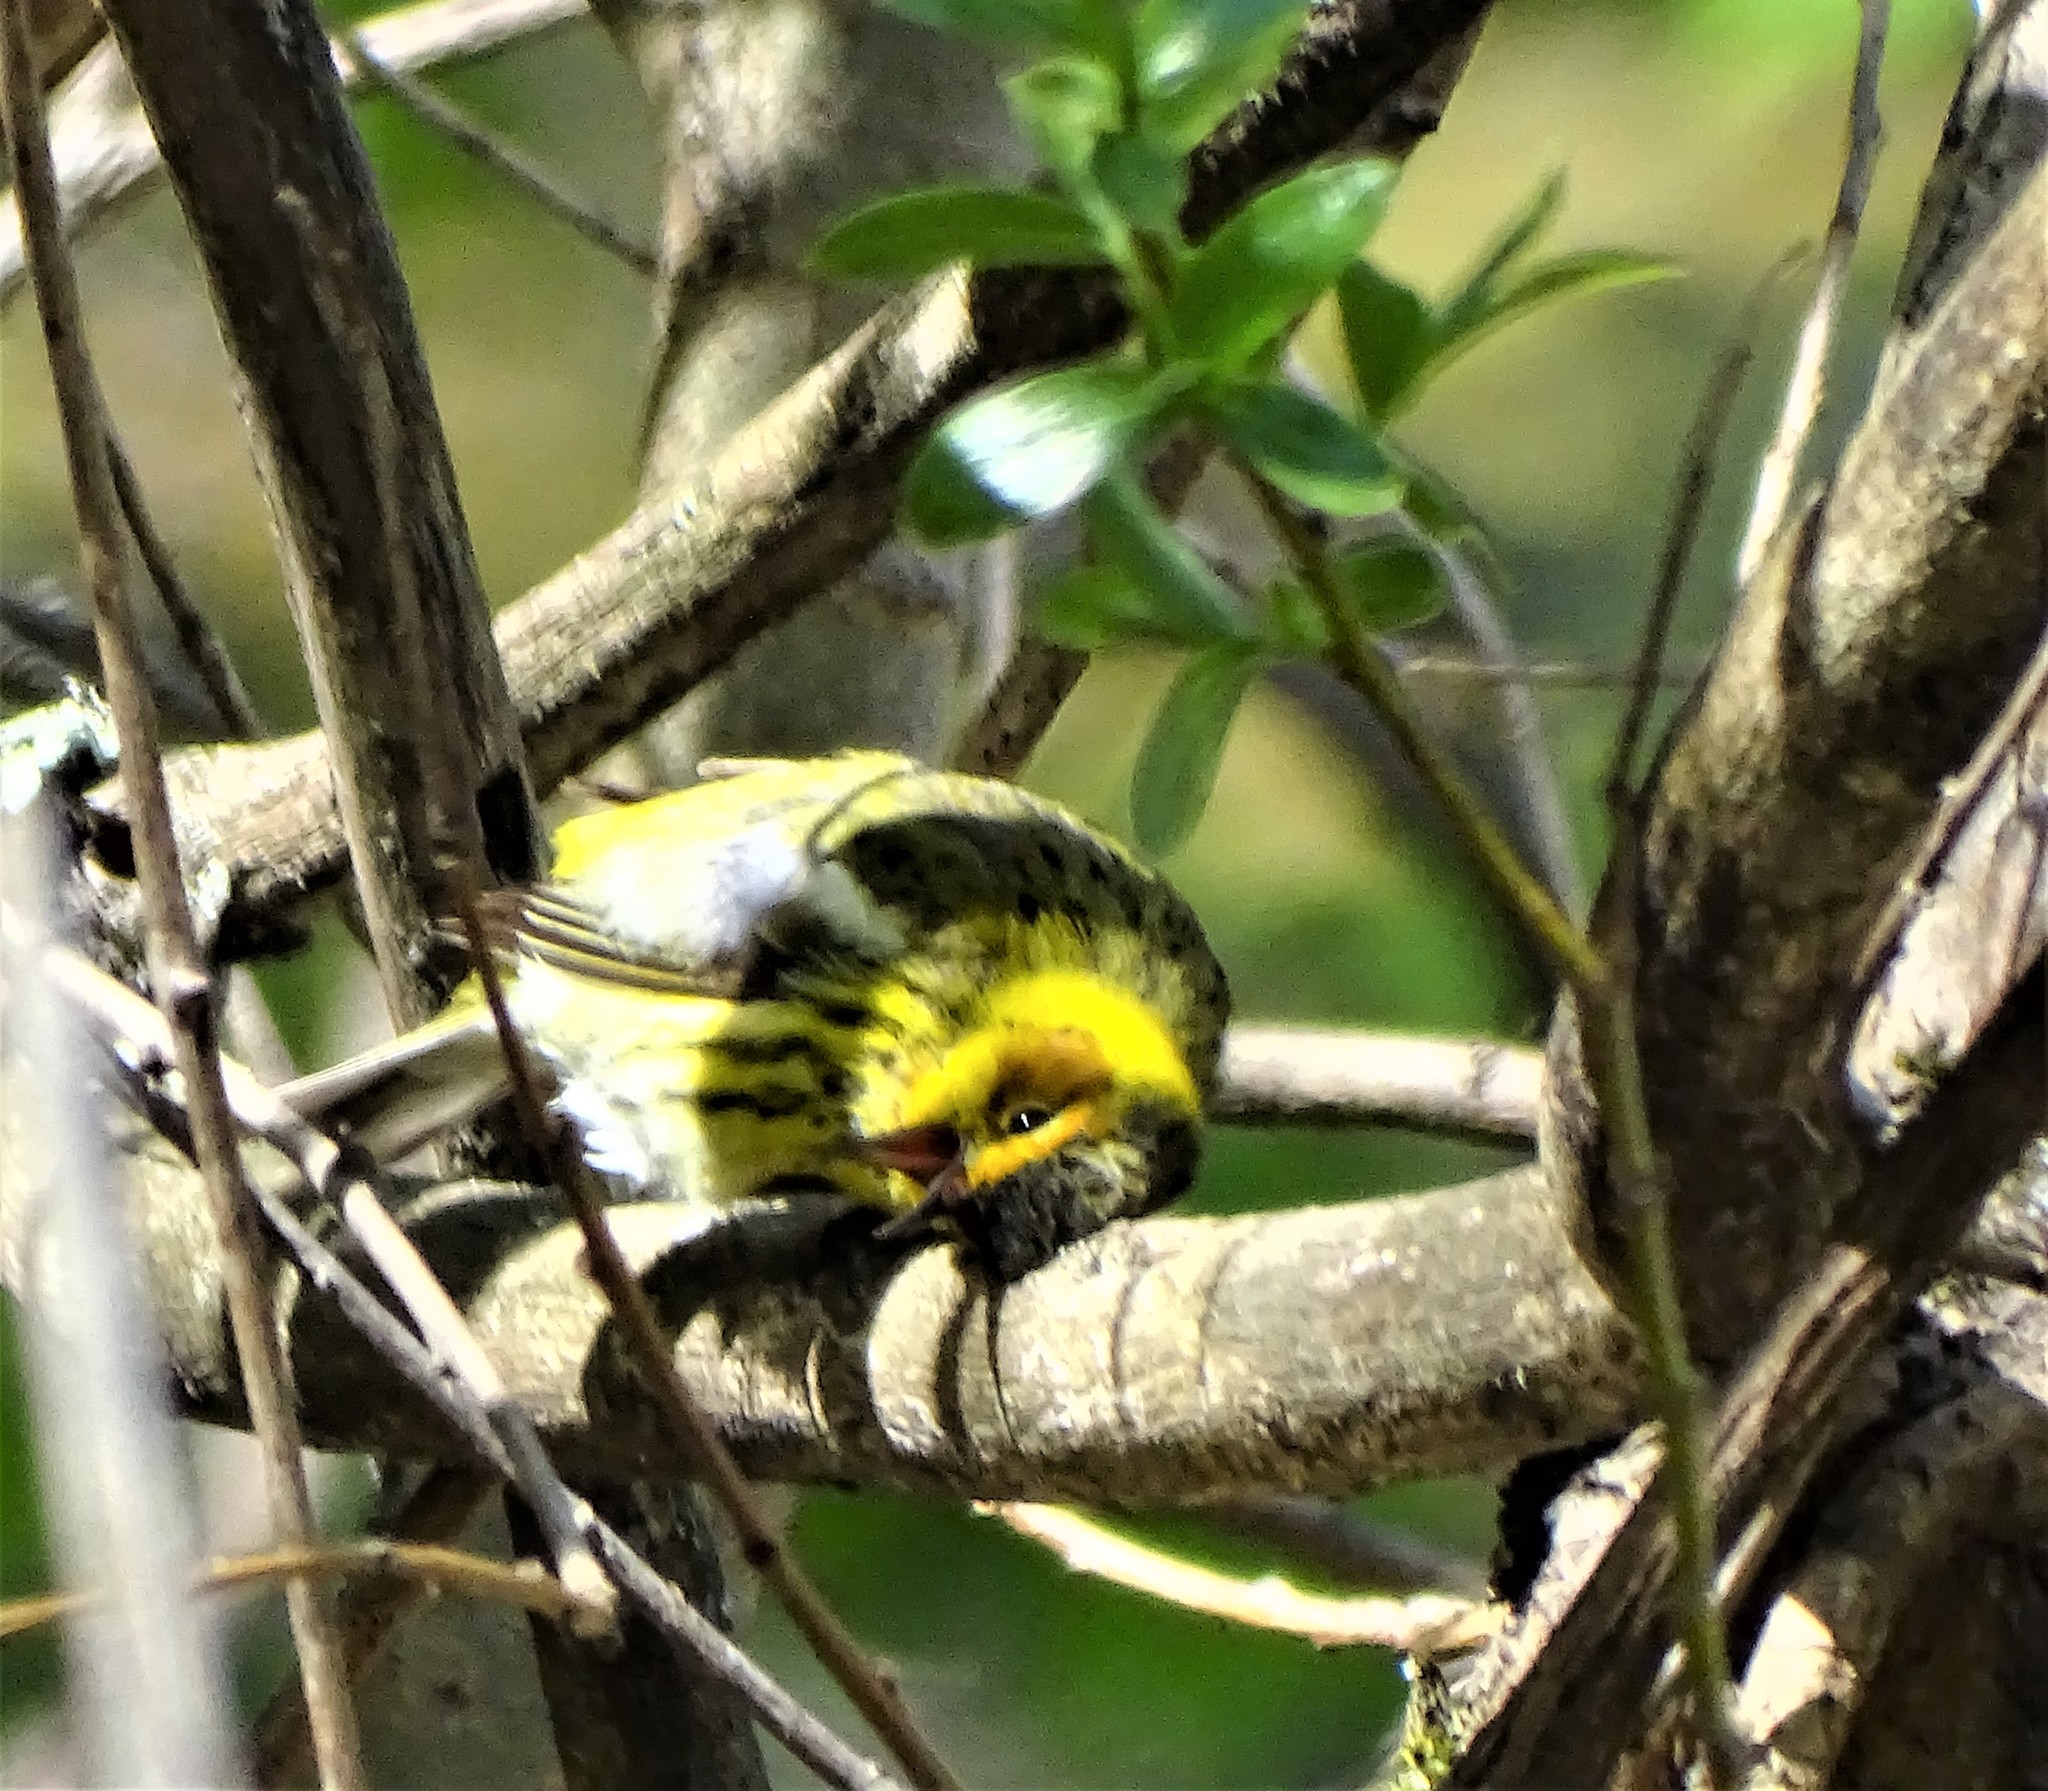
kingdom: Animalia
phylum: Chordata
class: Aves
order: Passeriformes
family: Parulidae
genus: Setophaga
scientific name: Setophaga tigrina
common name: Cape may warbler
